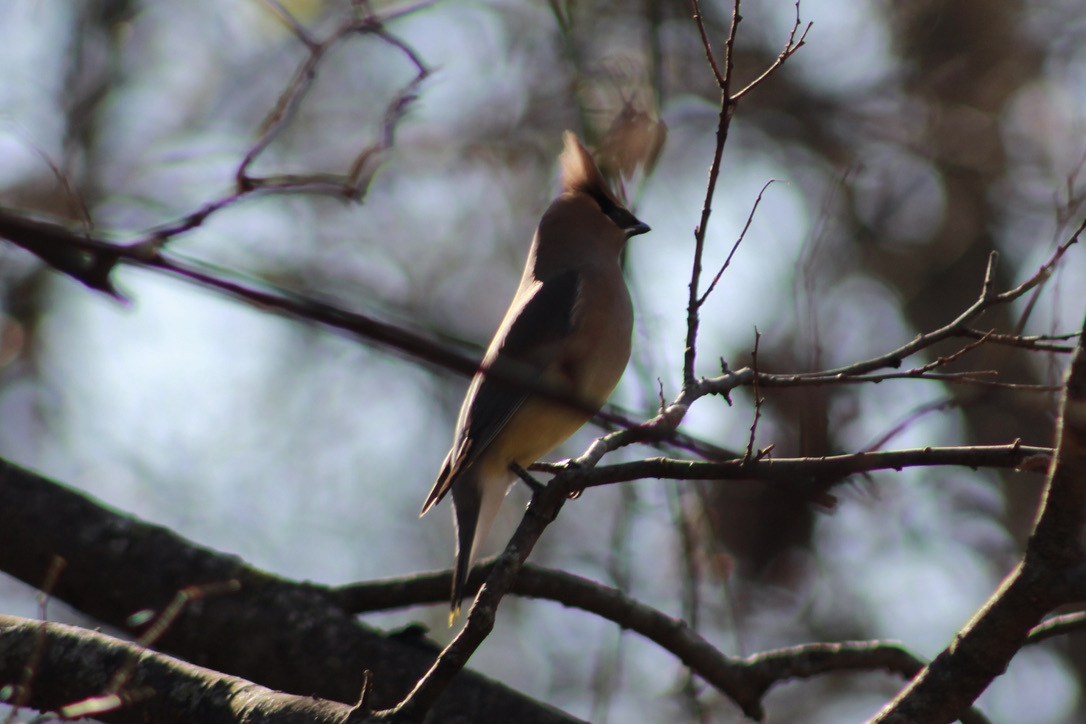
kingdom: Animalia
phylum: Chordata
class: Aves
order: Passeriformes
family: Bombycillidae
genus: Bombycilla
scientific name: Bombycilla cedrorum
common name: Cedar waxwing
